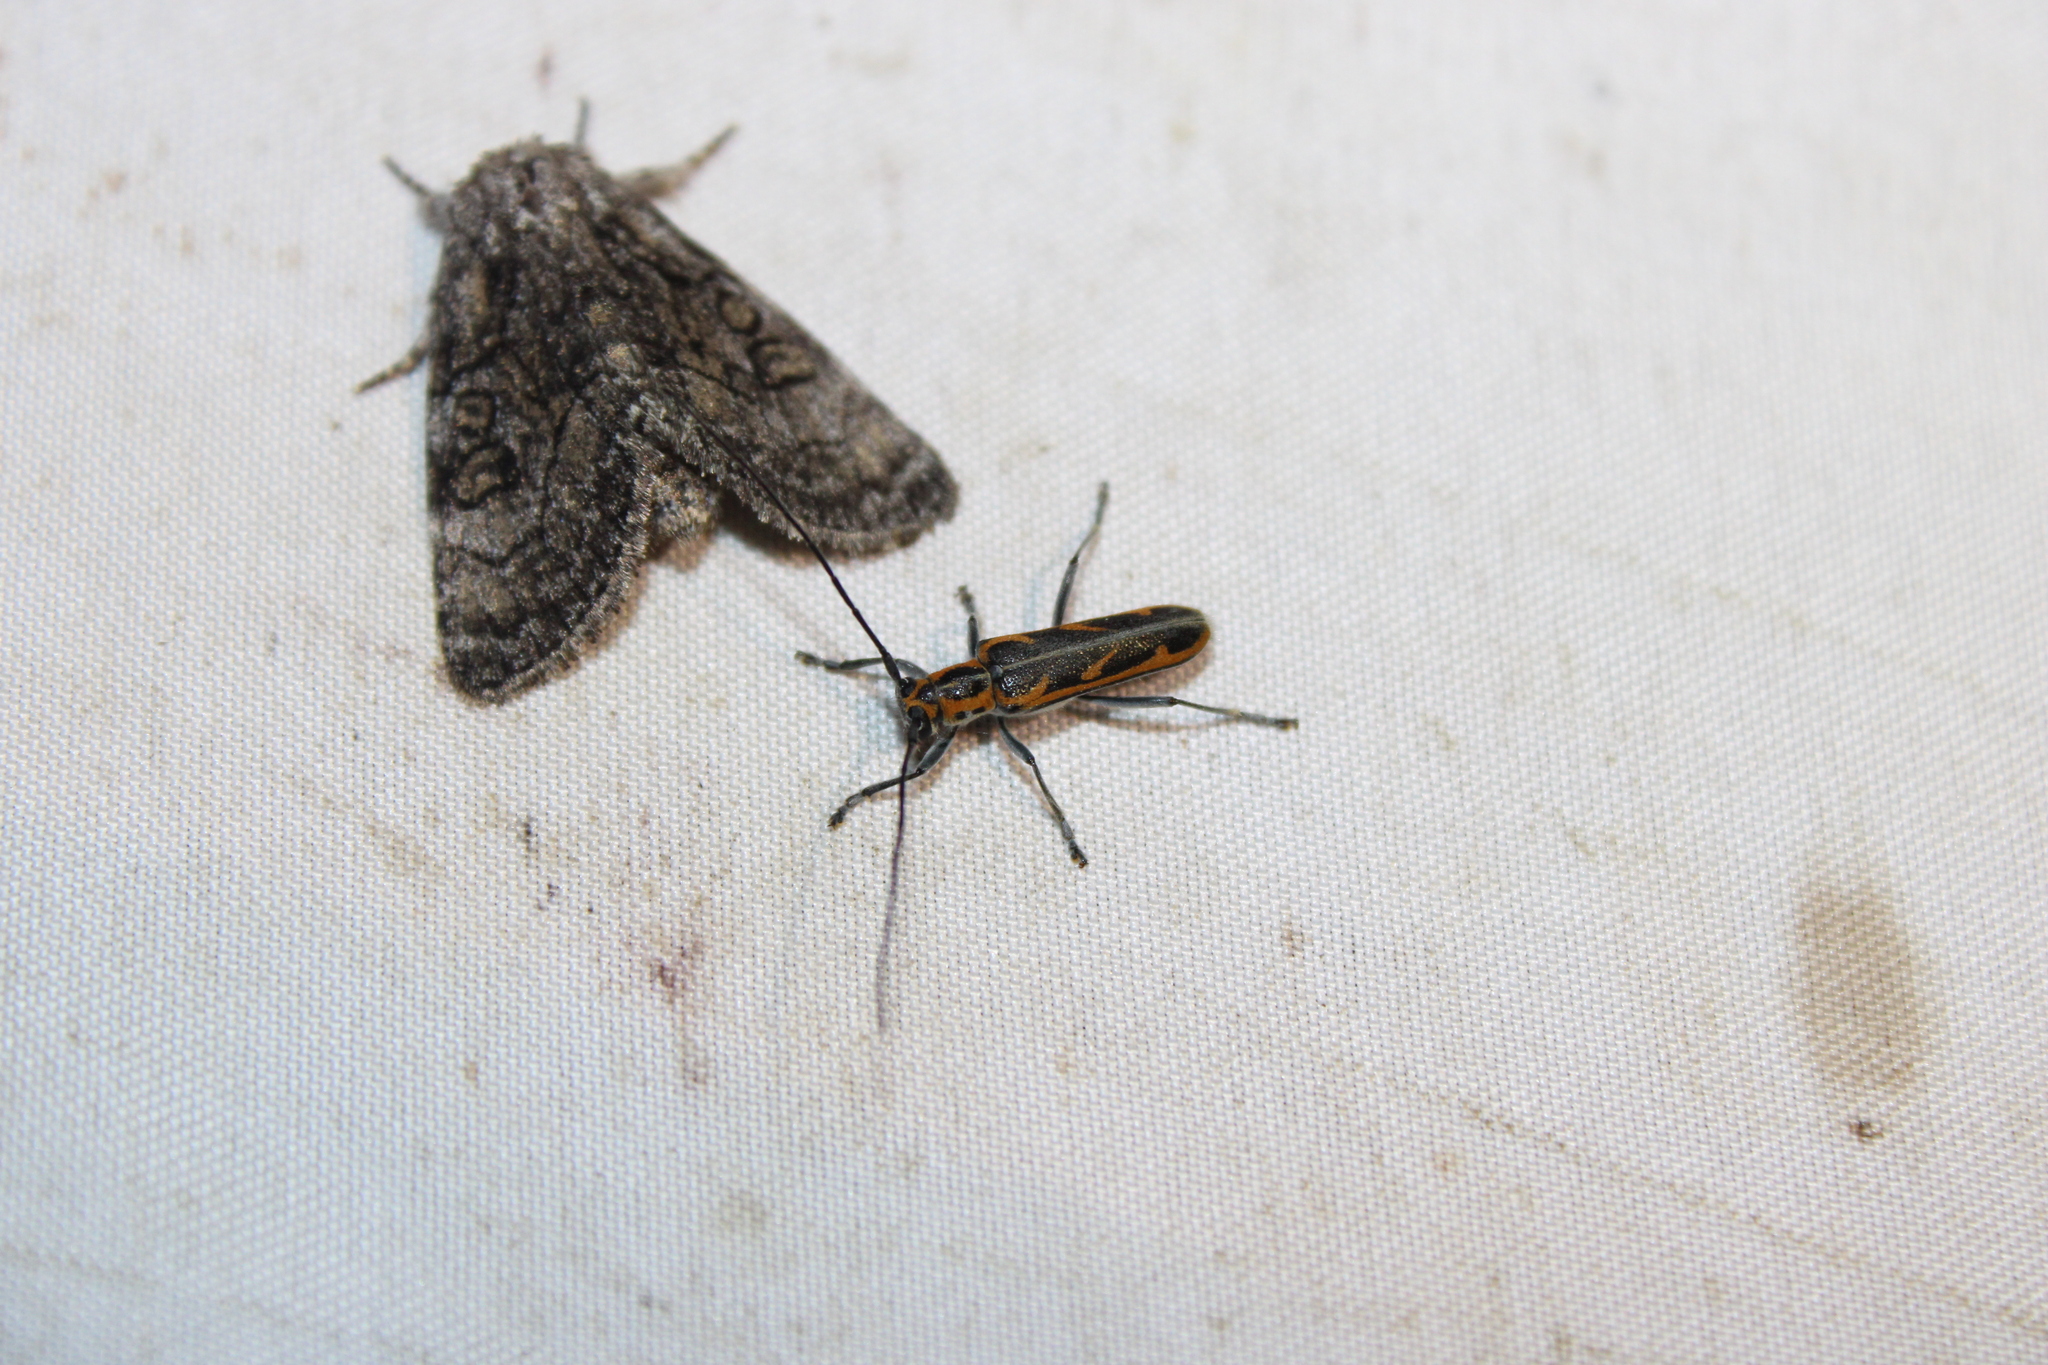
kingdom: Animalia
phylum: Arthropoda
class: Insecta
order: Coleoptera
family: Cerambycidae
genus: Saperda
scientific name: Saperda tridentata
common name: Elm borer
